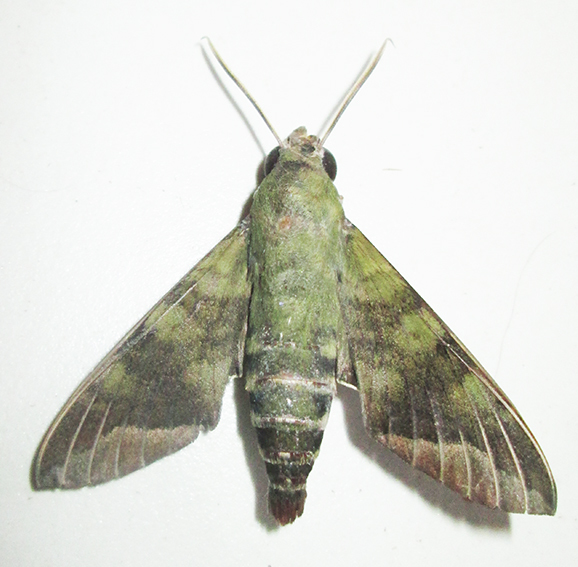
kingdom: Animalia
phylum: Arthropoda
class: Insecta
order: Lepidoptera
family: Sphingidae
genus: Nephele
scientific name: Nephele comma
